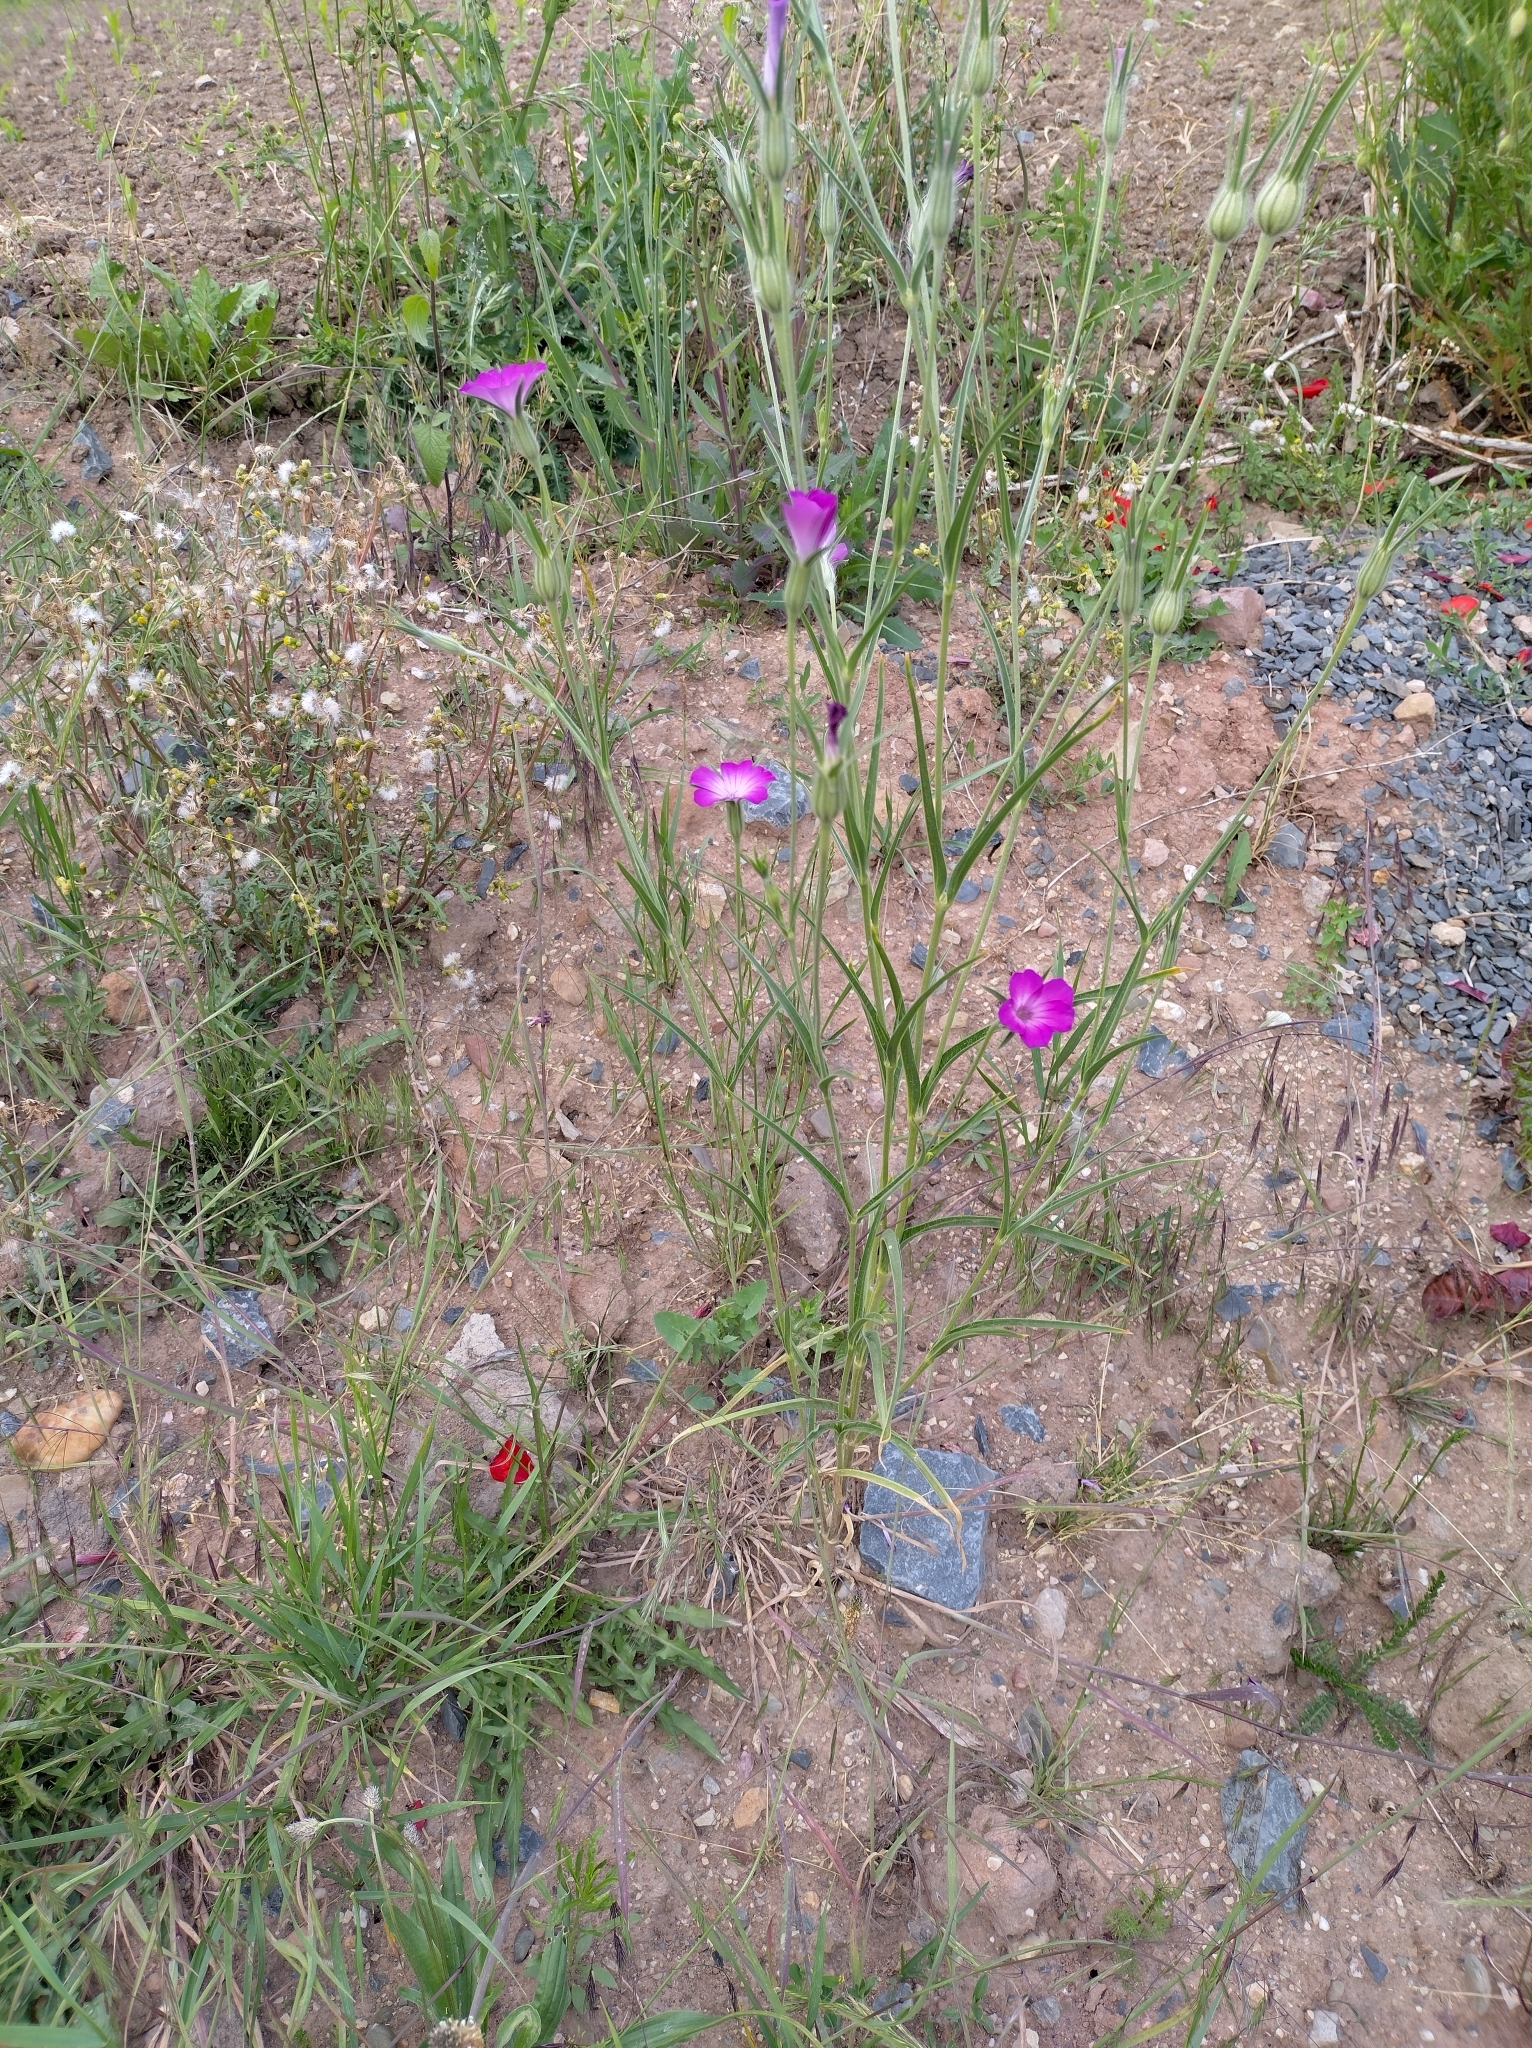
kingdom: Plantae
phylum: Tracheophyta
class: Magnoliopsida
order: Caryophyllales
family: Caryophyllaceae
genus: Agrostemma
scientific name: Agrostemma githago
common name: Common corncockle
